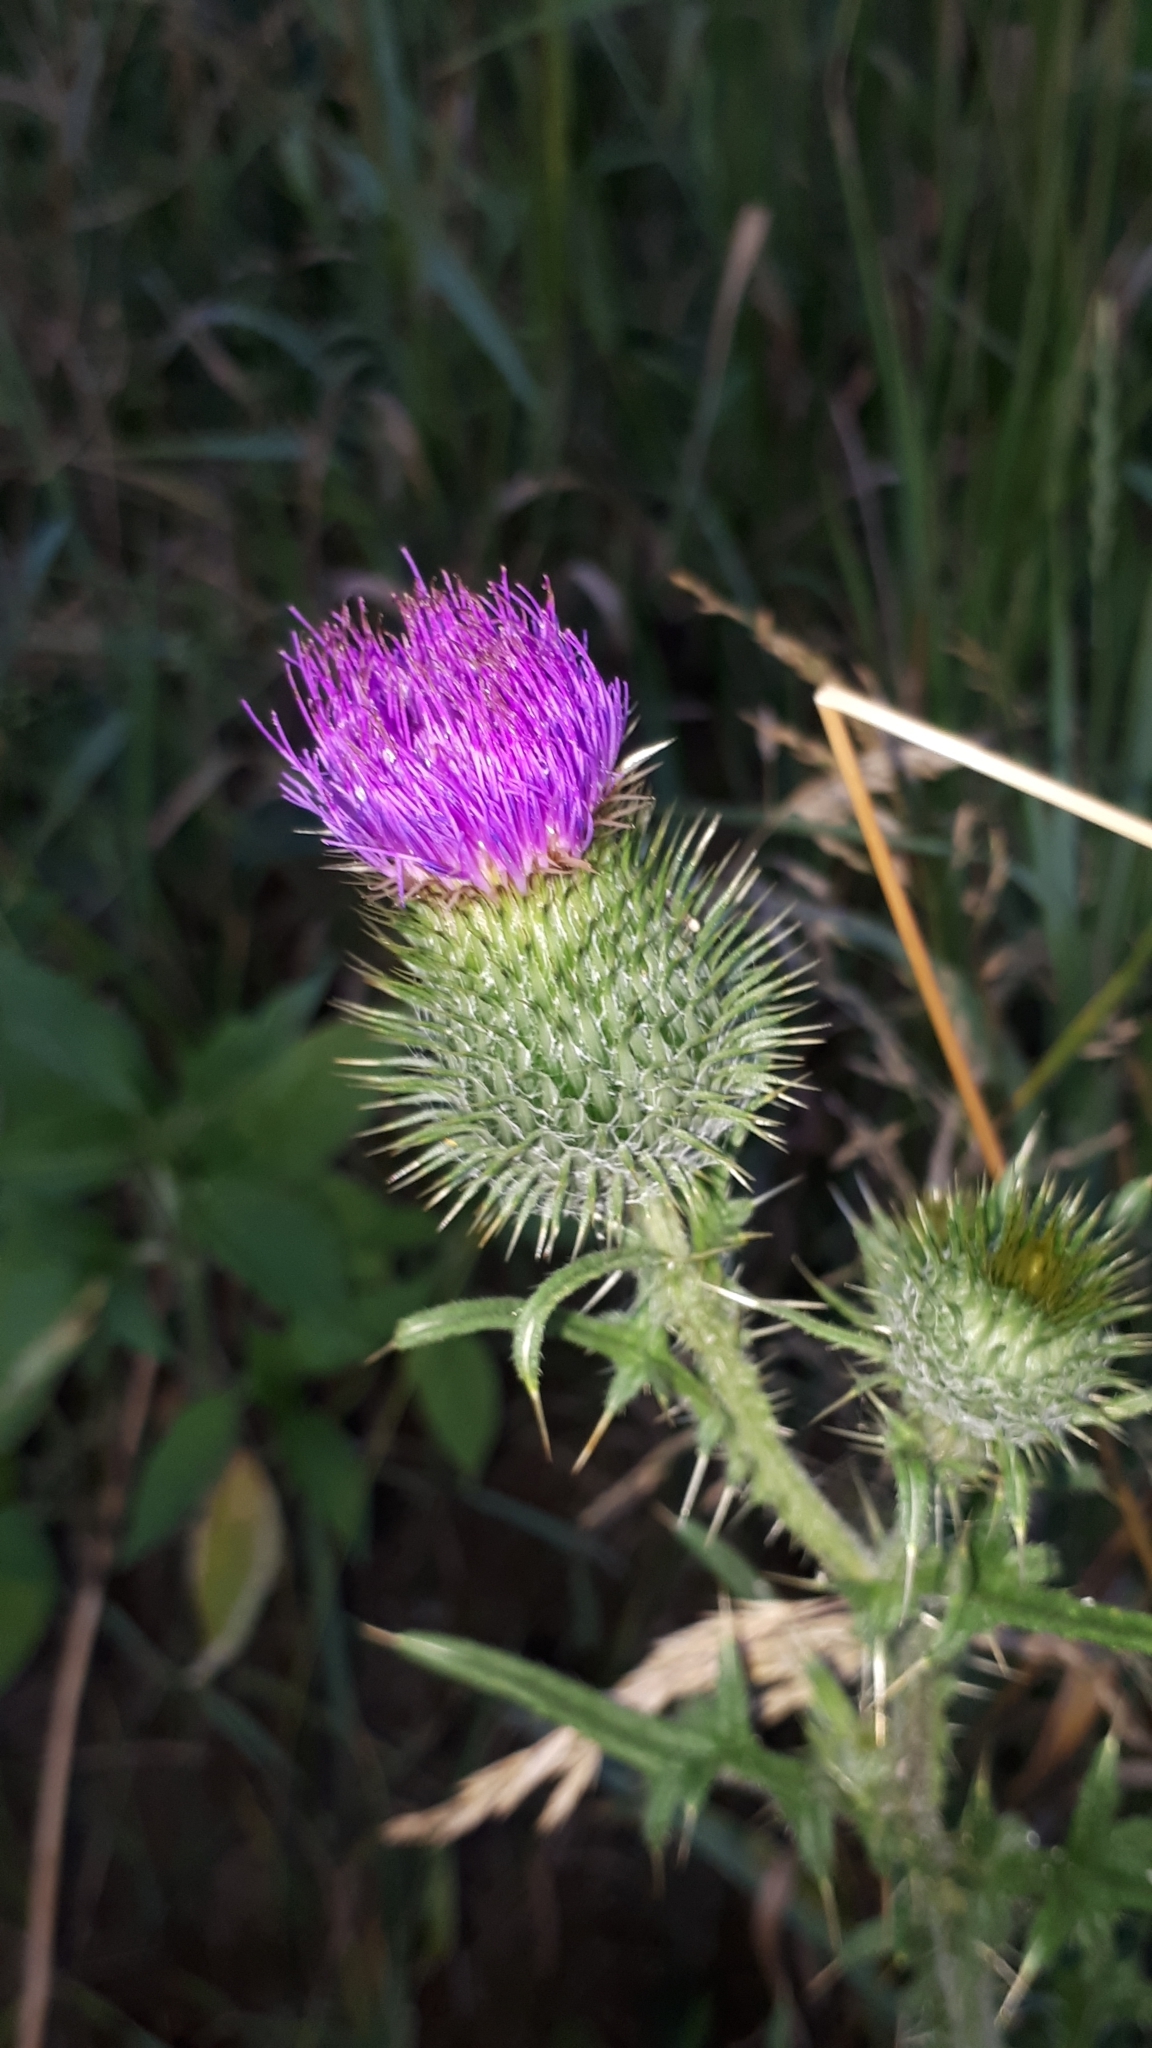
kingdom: Plantae
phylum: Tracheophyta
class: Magnoliopsida
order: Asterales
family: Asteraceae
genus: Cirsium
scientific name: Cirsium vulgare
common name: Bull thistle
